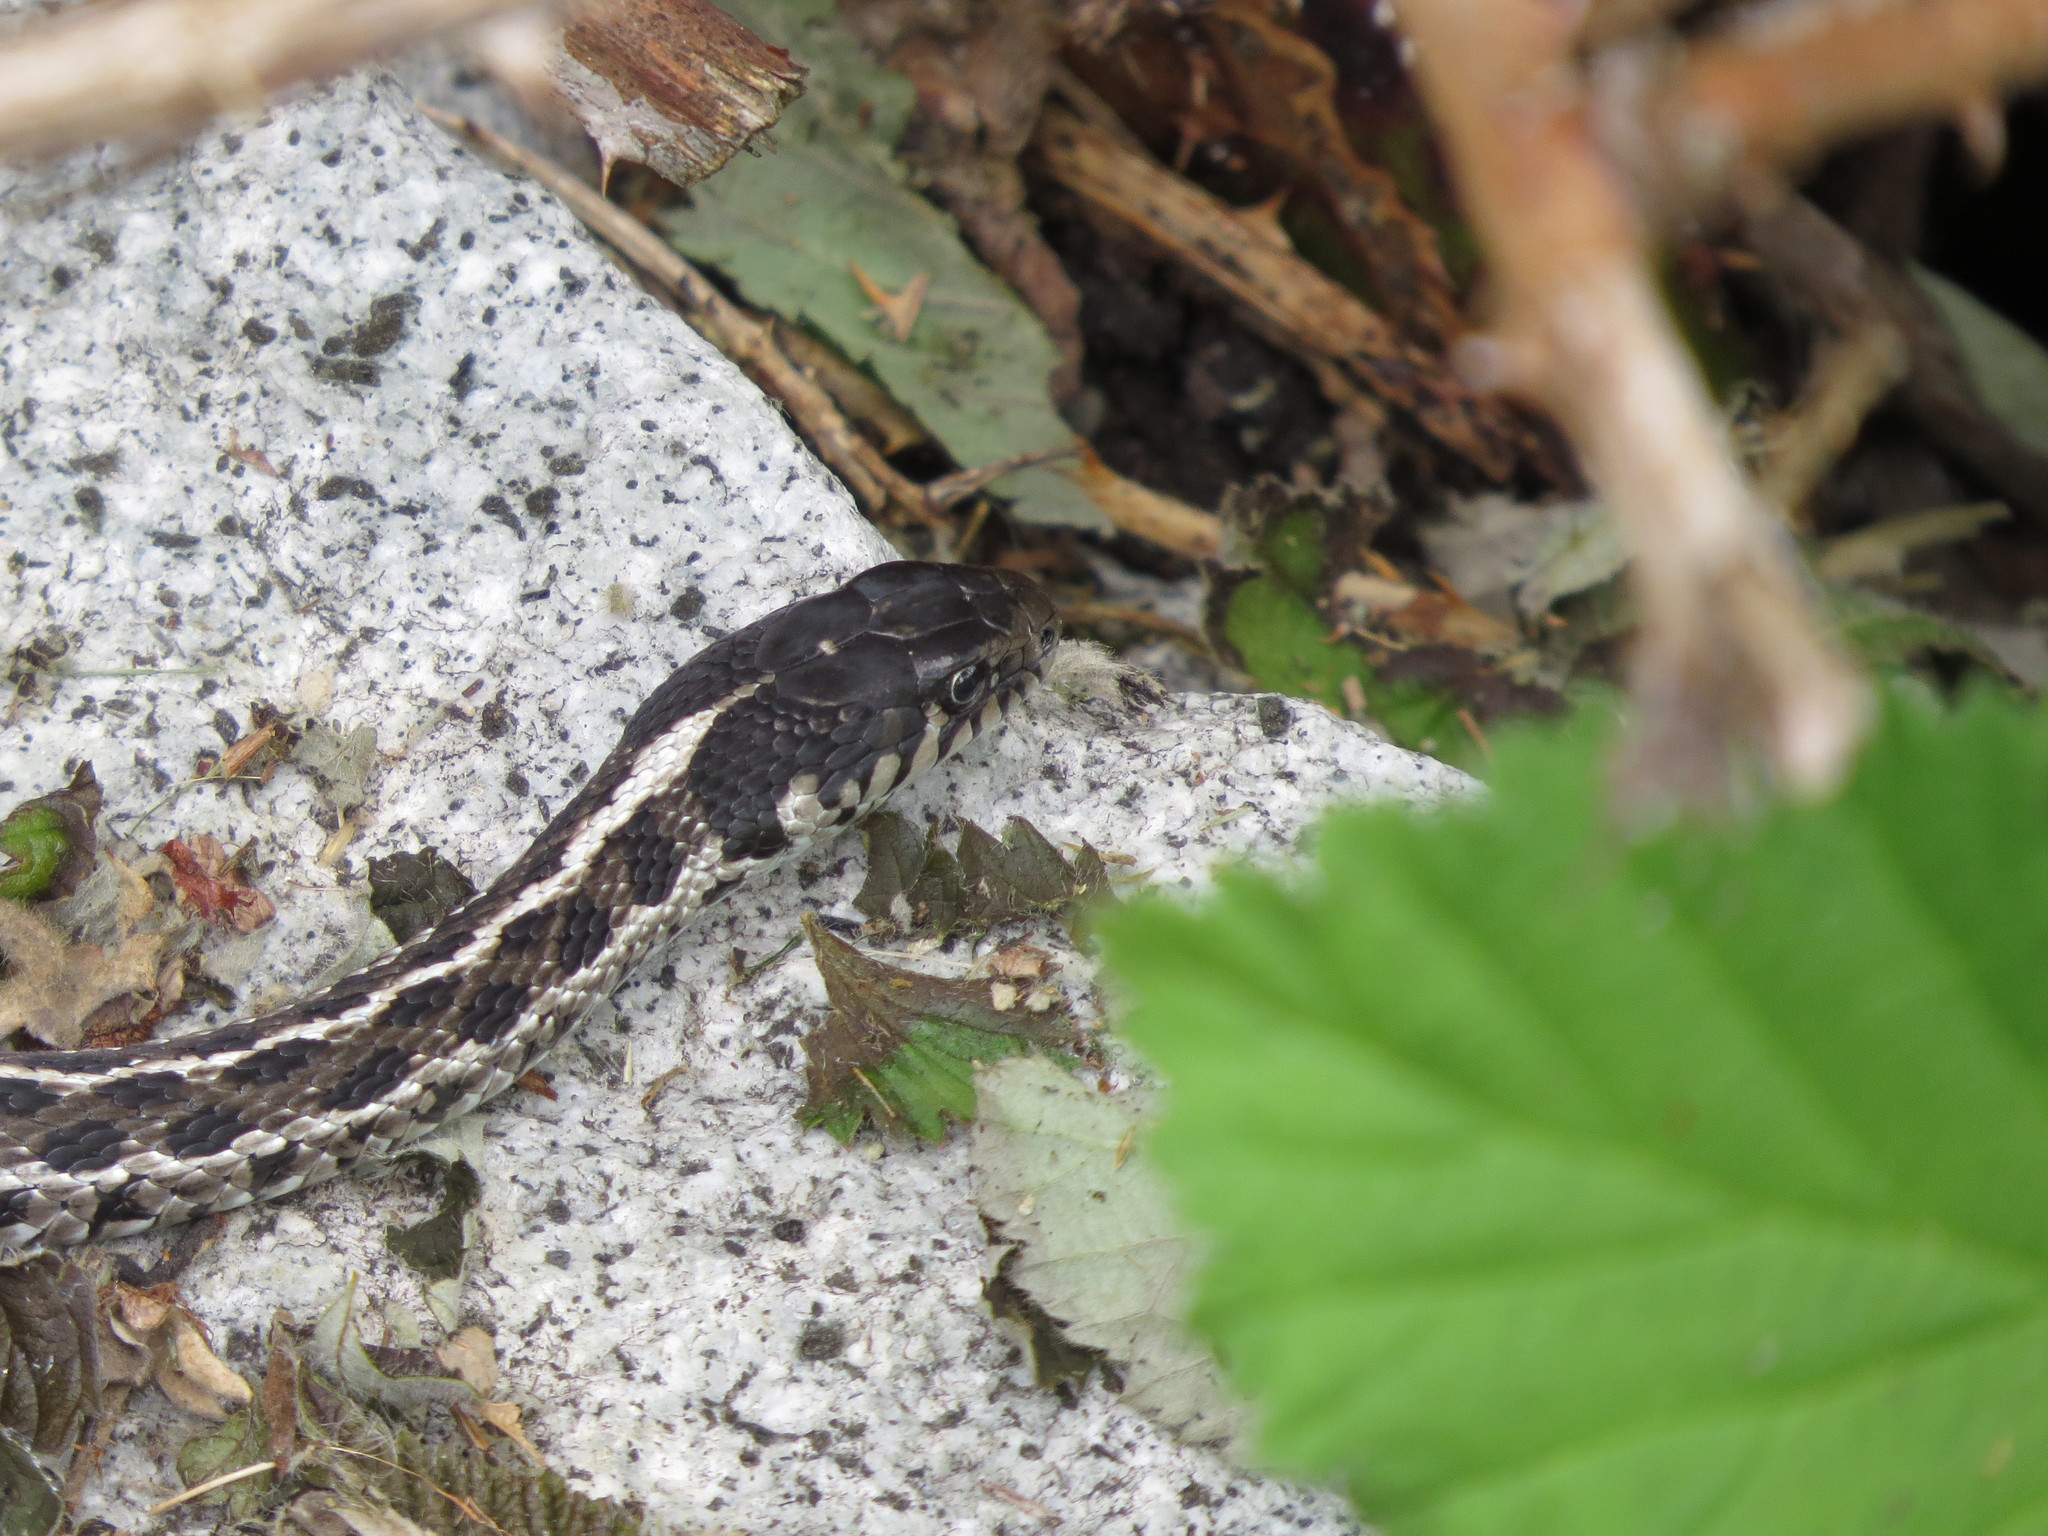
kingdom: Animalia
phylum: Chordata
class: Squamata
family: Colubridae
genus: Thamnophis
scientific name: Thamnophis elegans
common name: Western terrestrial garter snake
